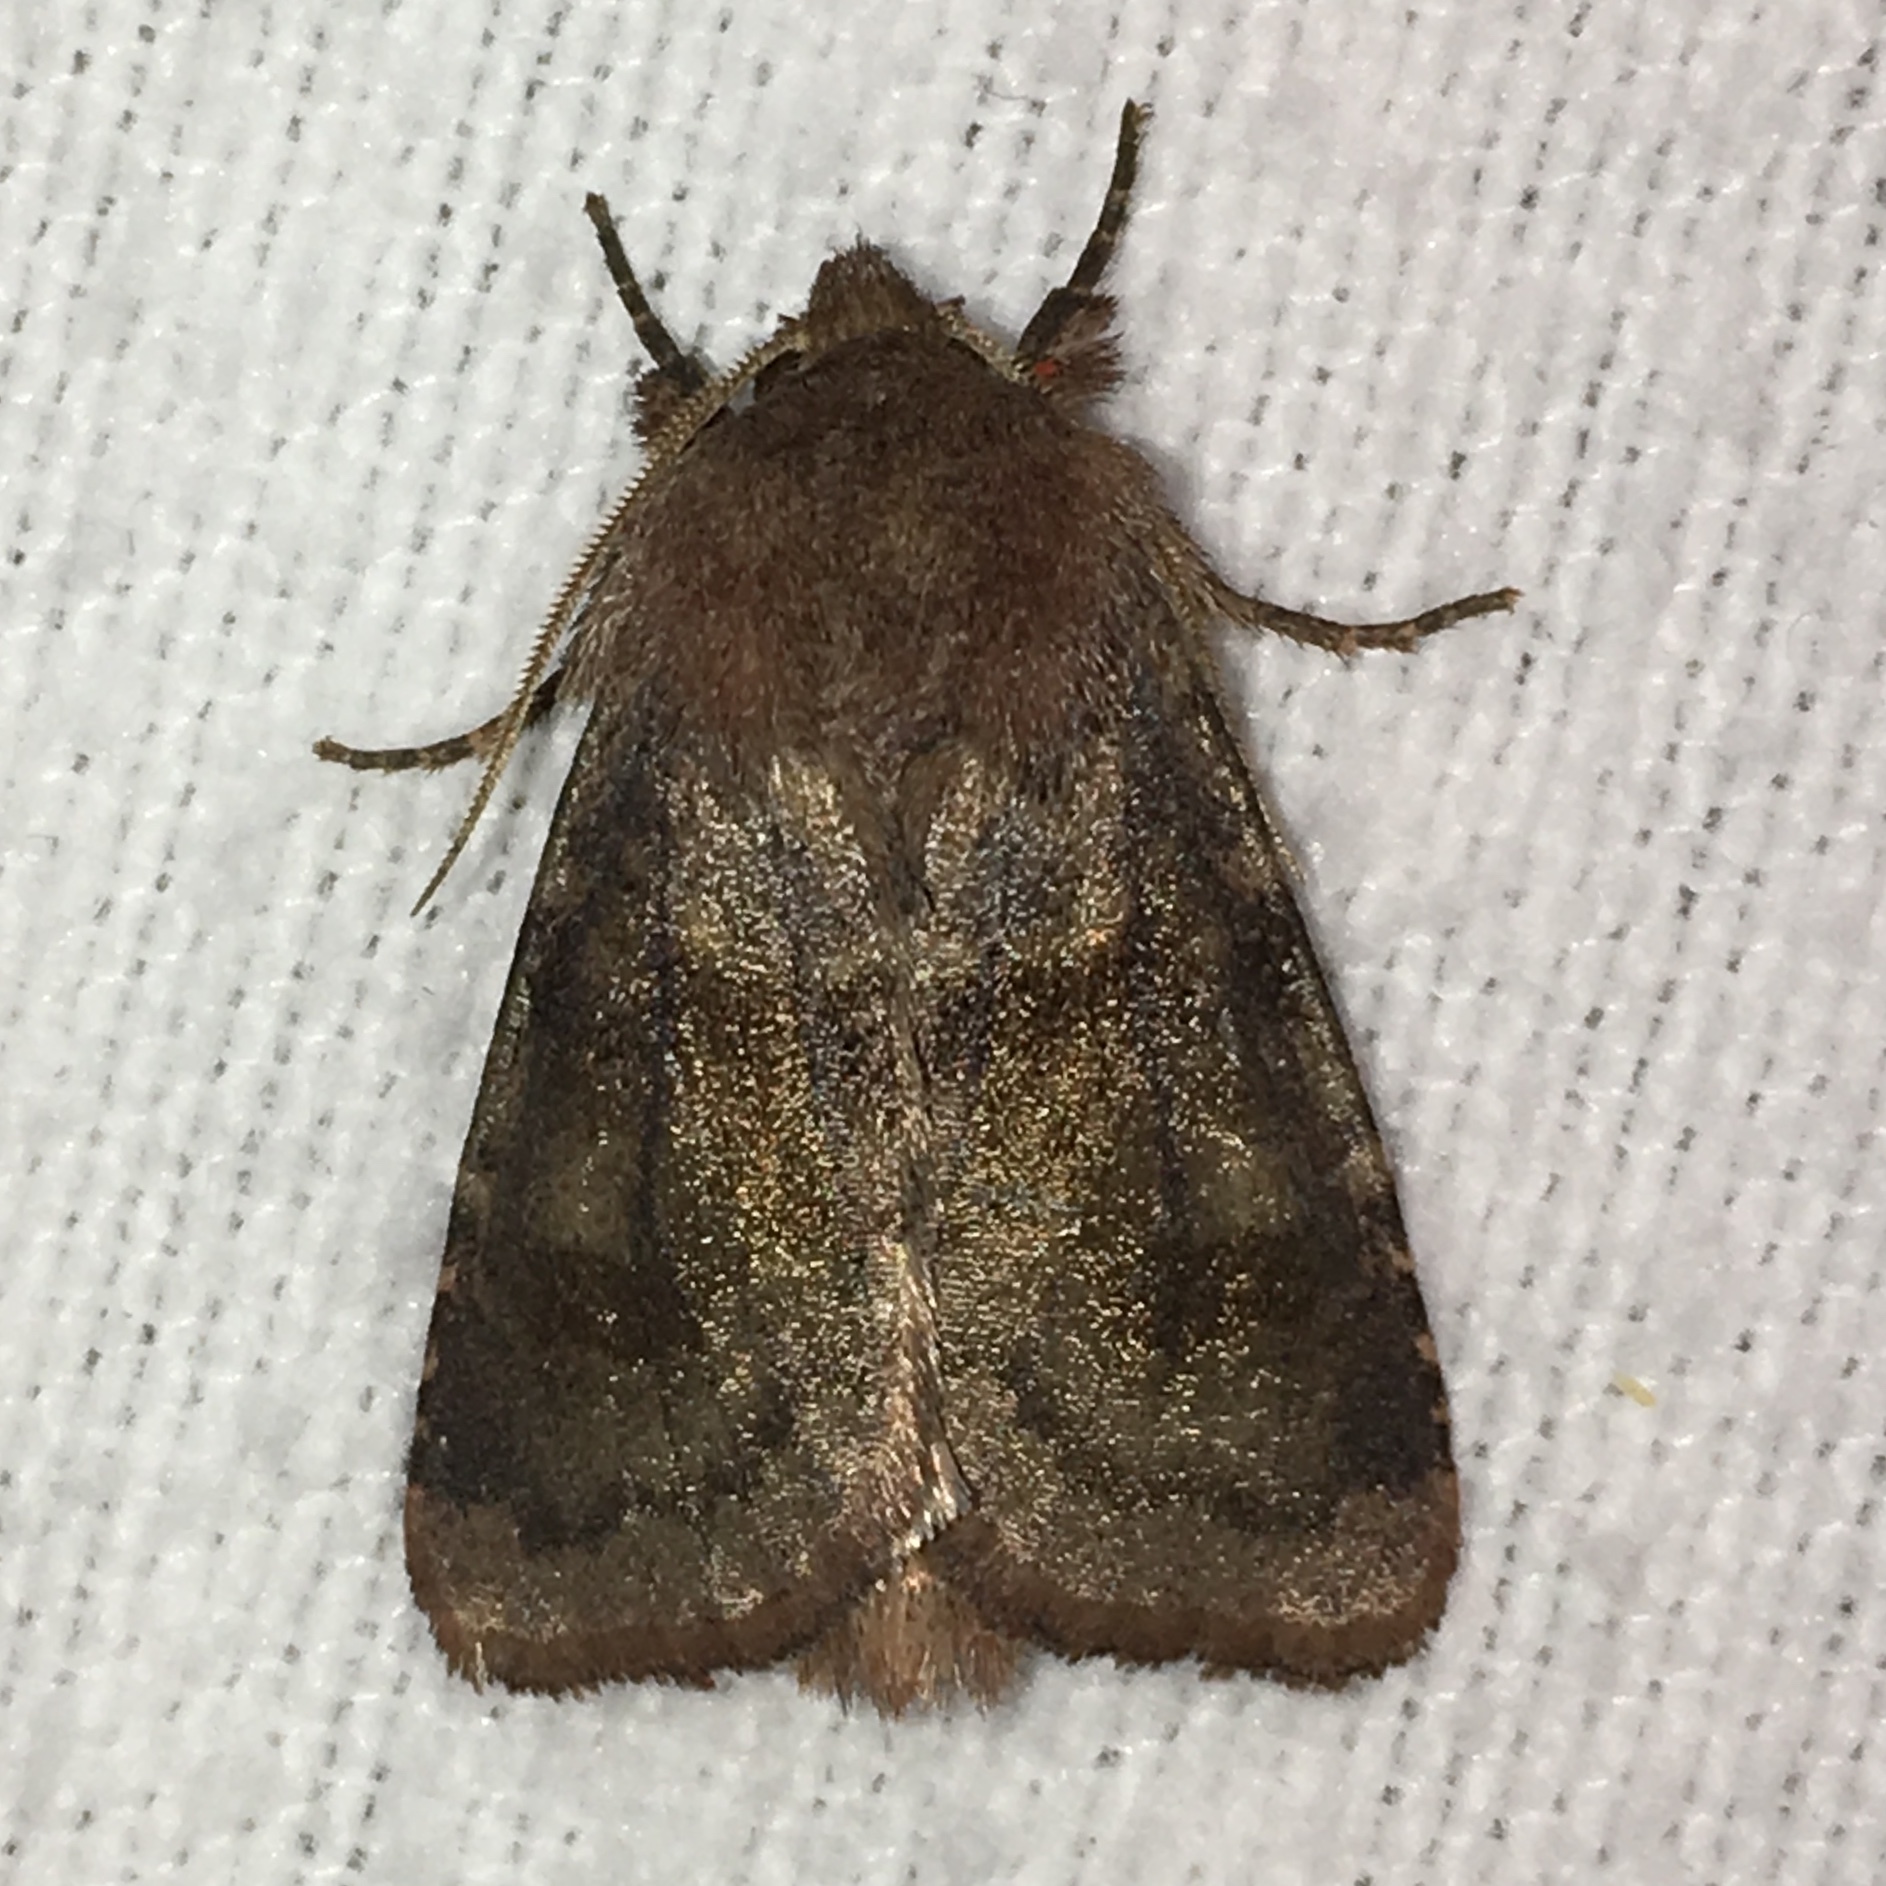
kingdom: Animalia
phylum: Arthropoda
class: Insecta
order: Lepidoptera
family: Noctuidae
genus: Nephelodes
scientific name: Nephelodes minians
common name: Bronzed cutworm
